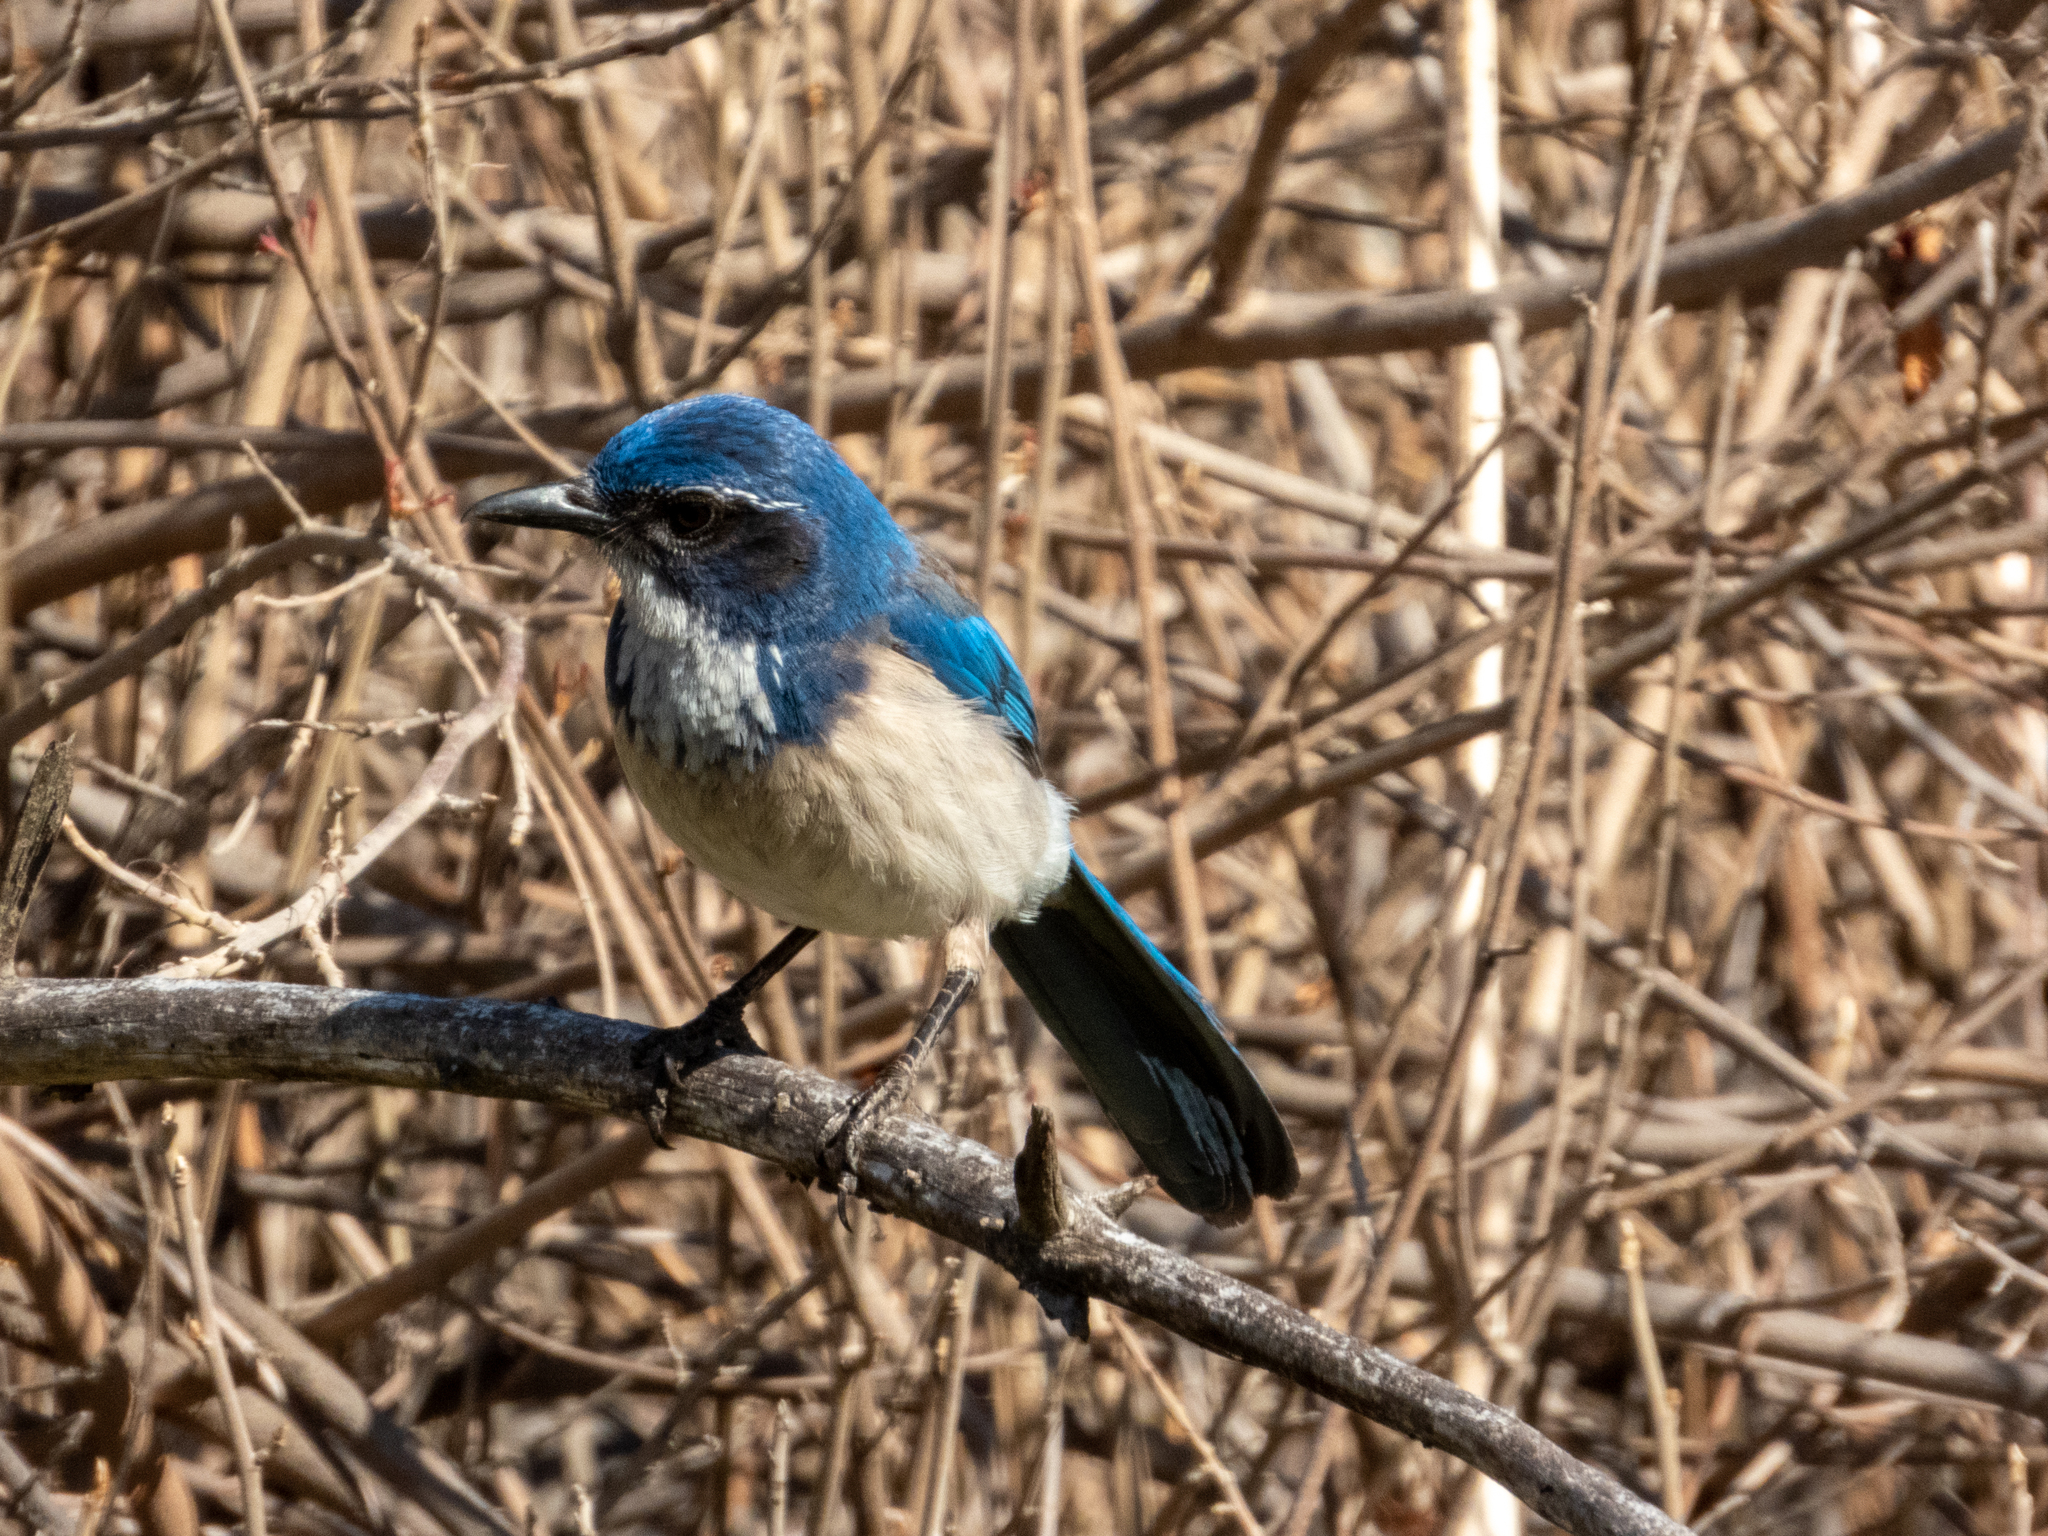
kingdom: Animalia
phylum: Chordata
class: Aves
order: Passeriformes
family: Corvidae
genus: Aphelocoma
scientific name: Aphelocoma californica
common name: California scrub-jay
